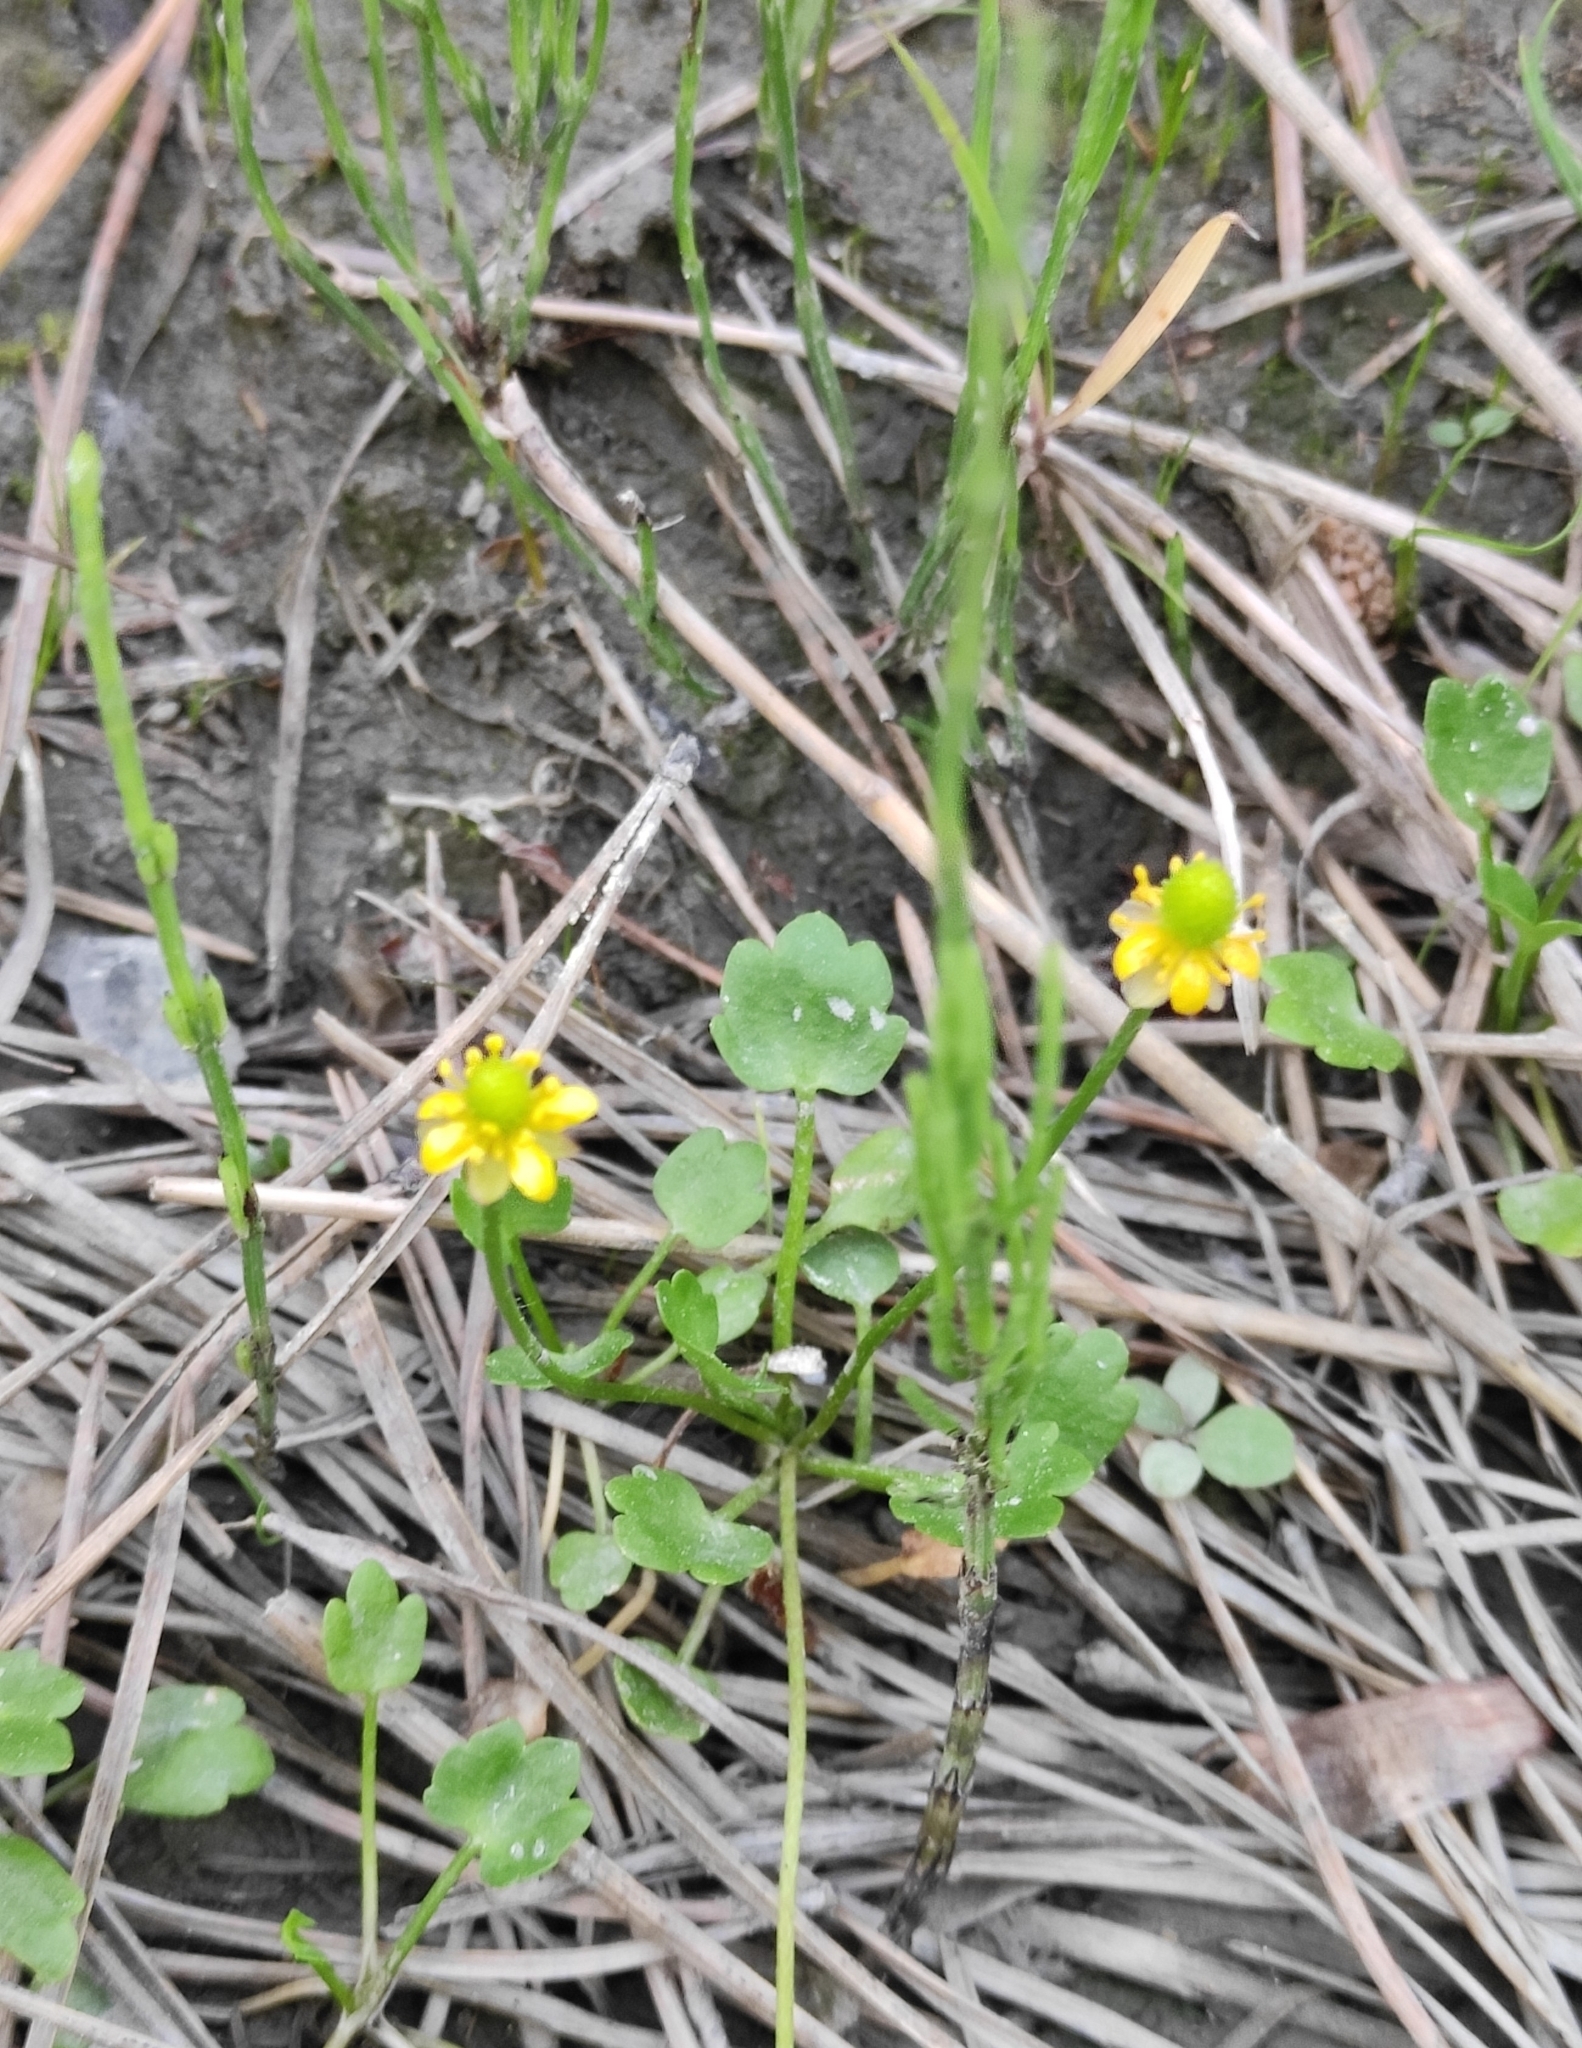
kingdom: Plantae
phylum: Tracheophyta
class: Magnoliopsida
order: Ranunculales
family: Ranunculaceae
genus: Halerpestes
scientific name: Halerpestes sarmentosus
